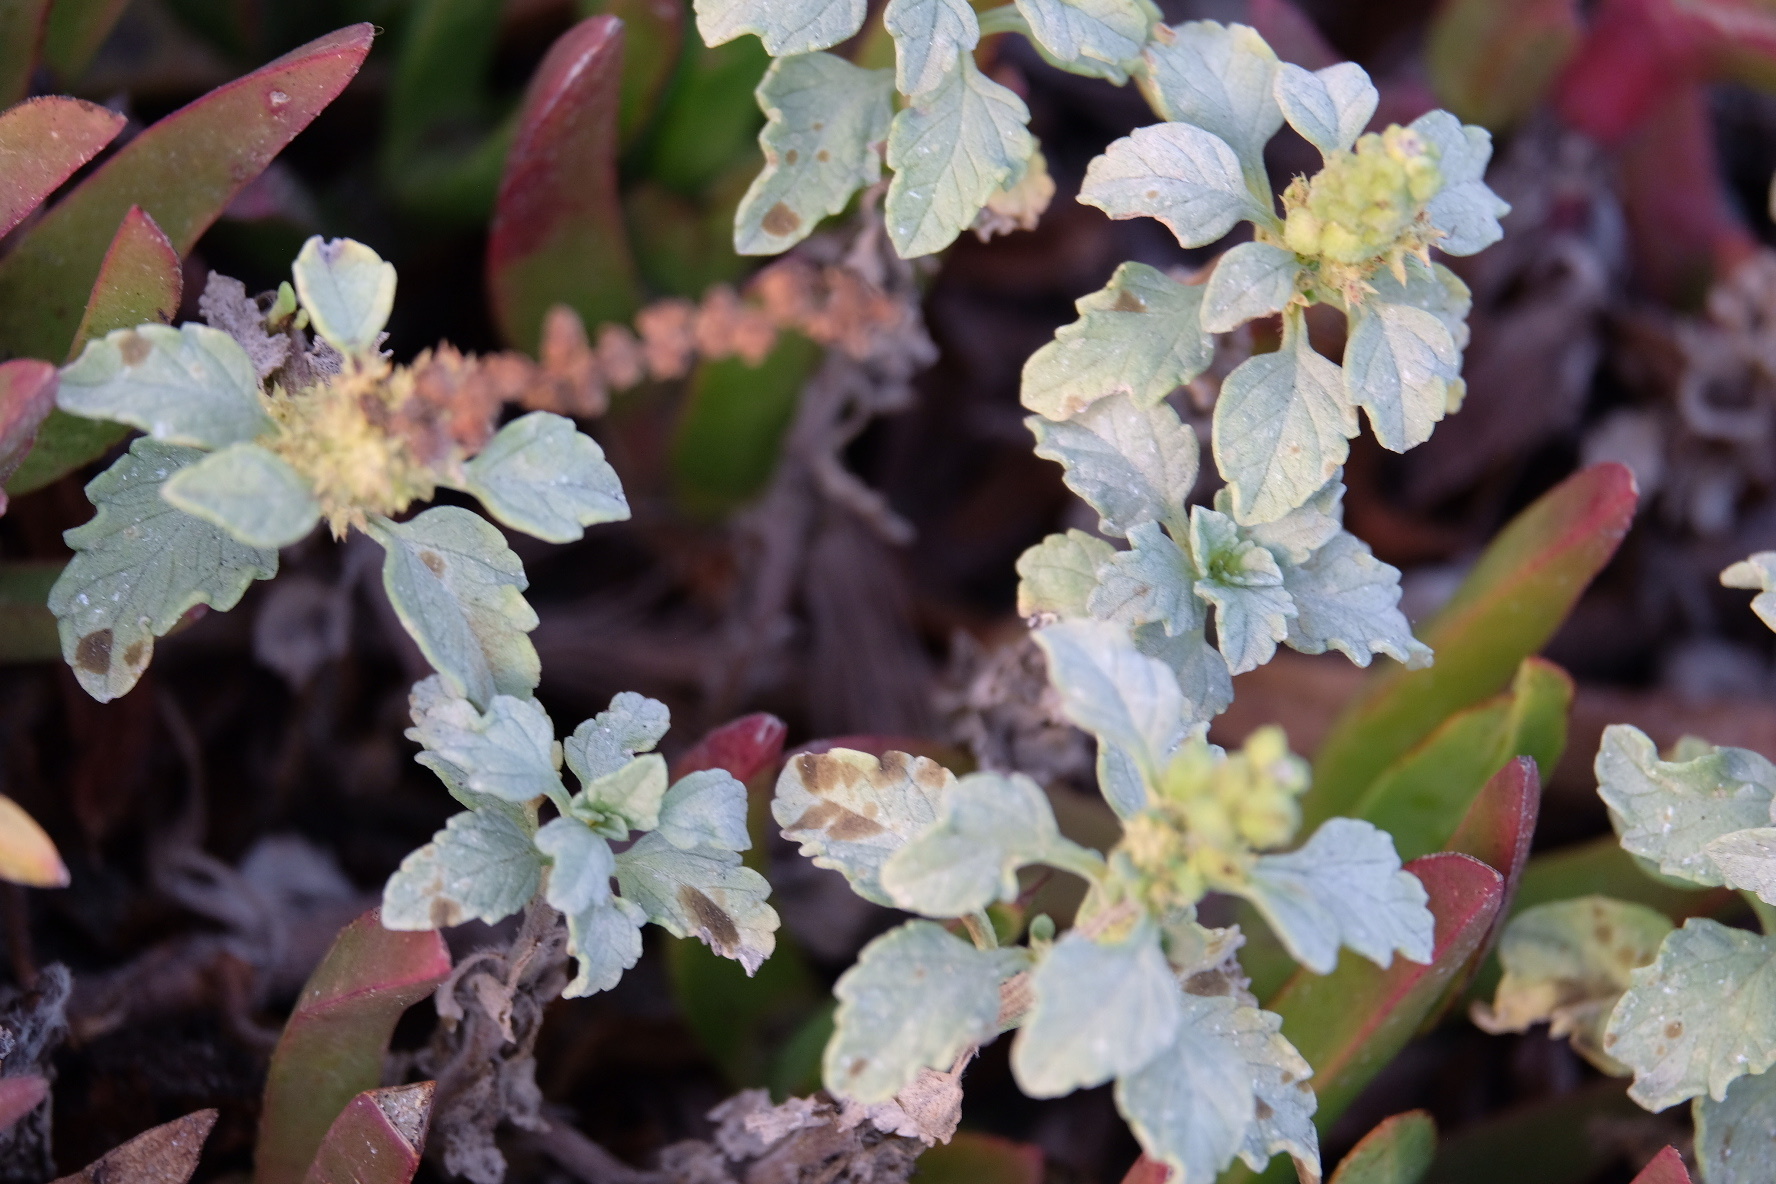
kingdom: Plantae
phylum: Tracheophyta
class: Magnoliopsida
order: Asterales
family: Asteraceae
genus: Ambrosia
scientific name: Ambrosia chamissonis
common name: Beachbur
